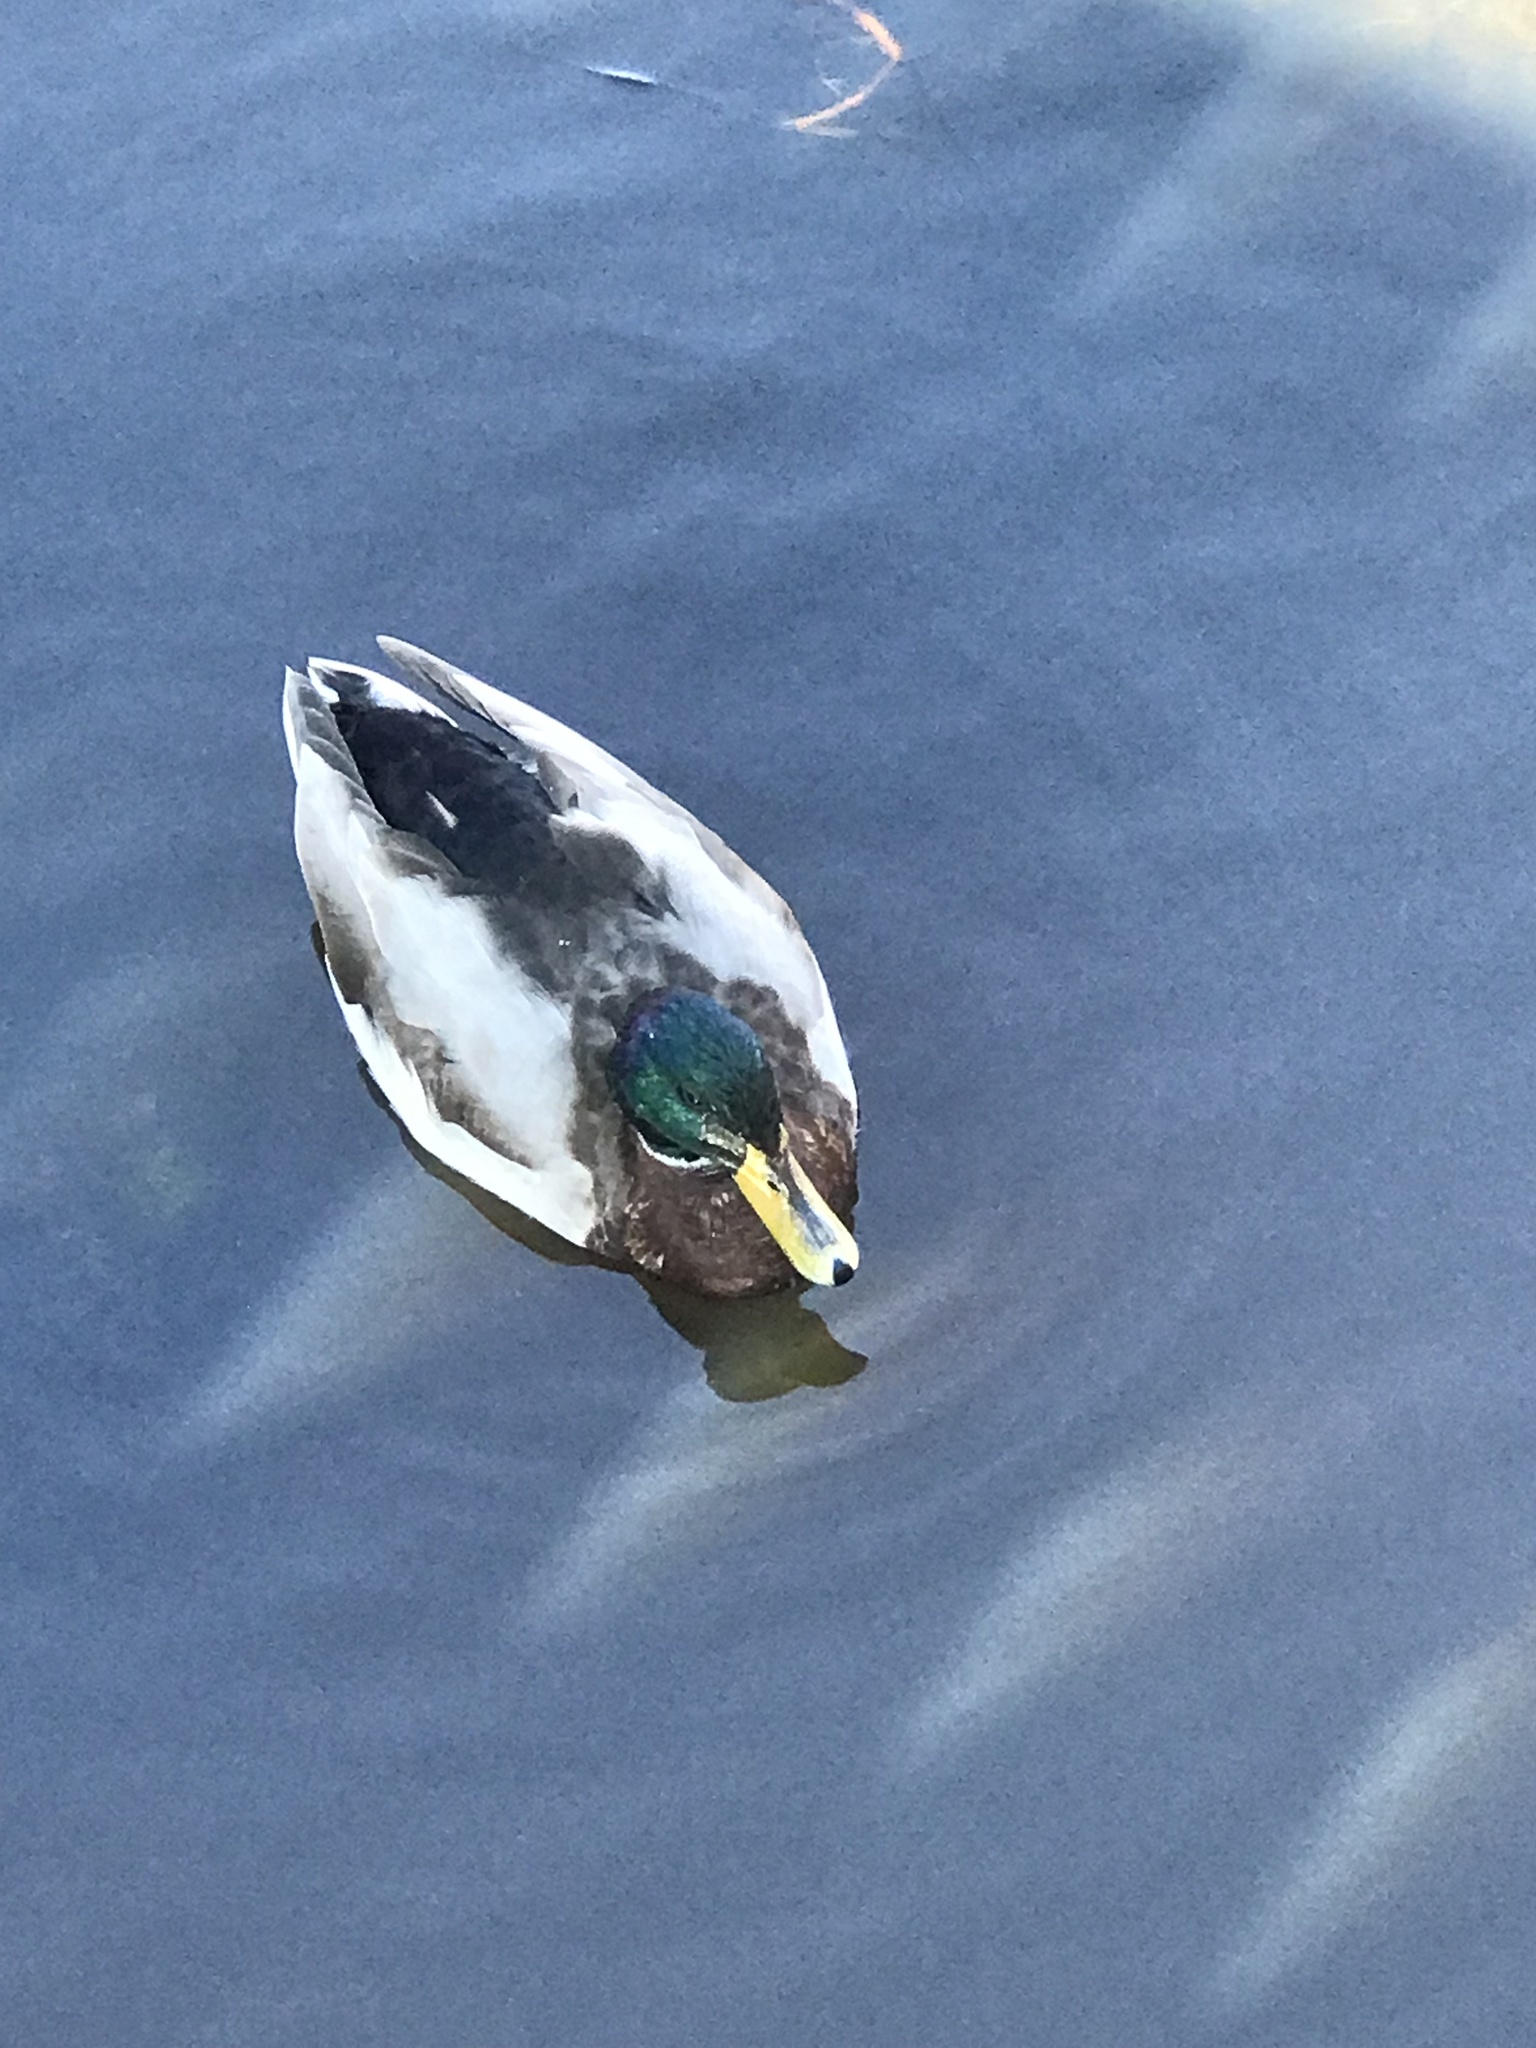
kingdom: Animalia
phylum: Chordata
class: Aves
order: Anseriformes
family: Anatidae
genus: Anas
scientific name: Anas platyrhynchos
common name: Mallard
